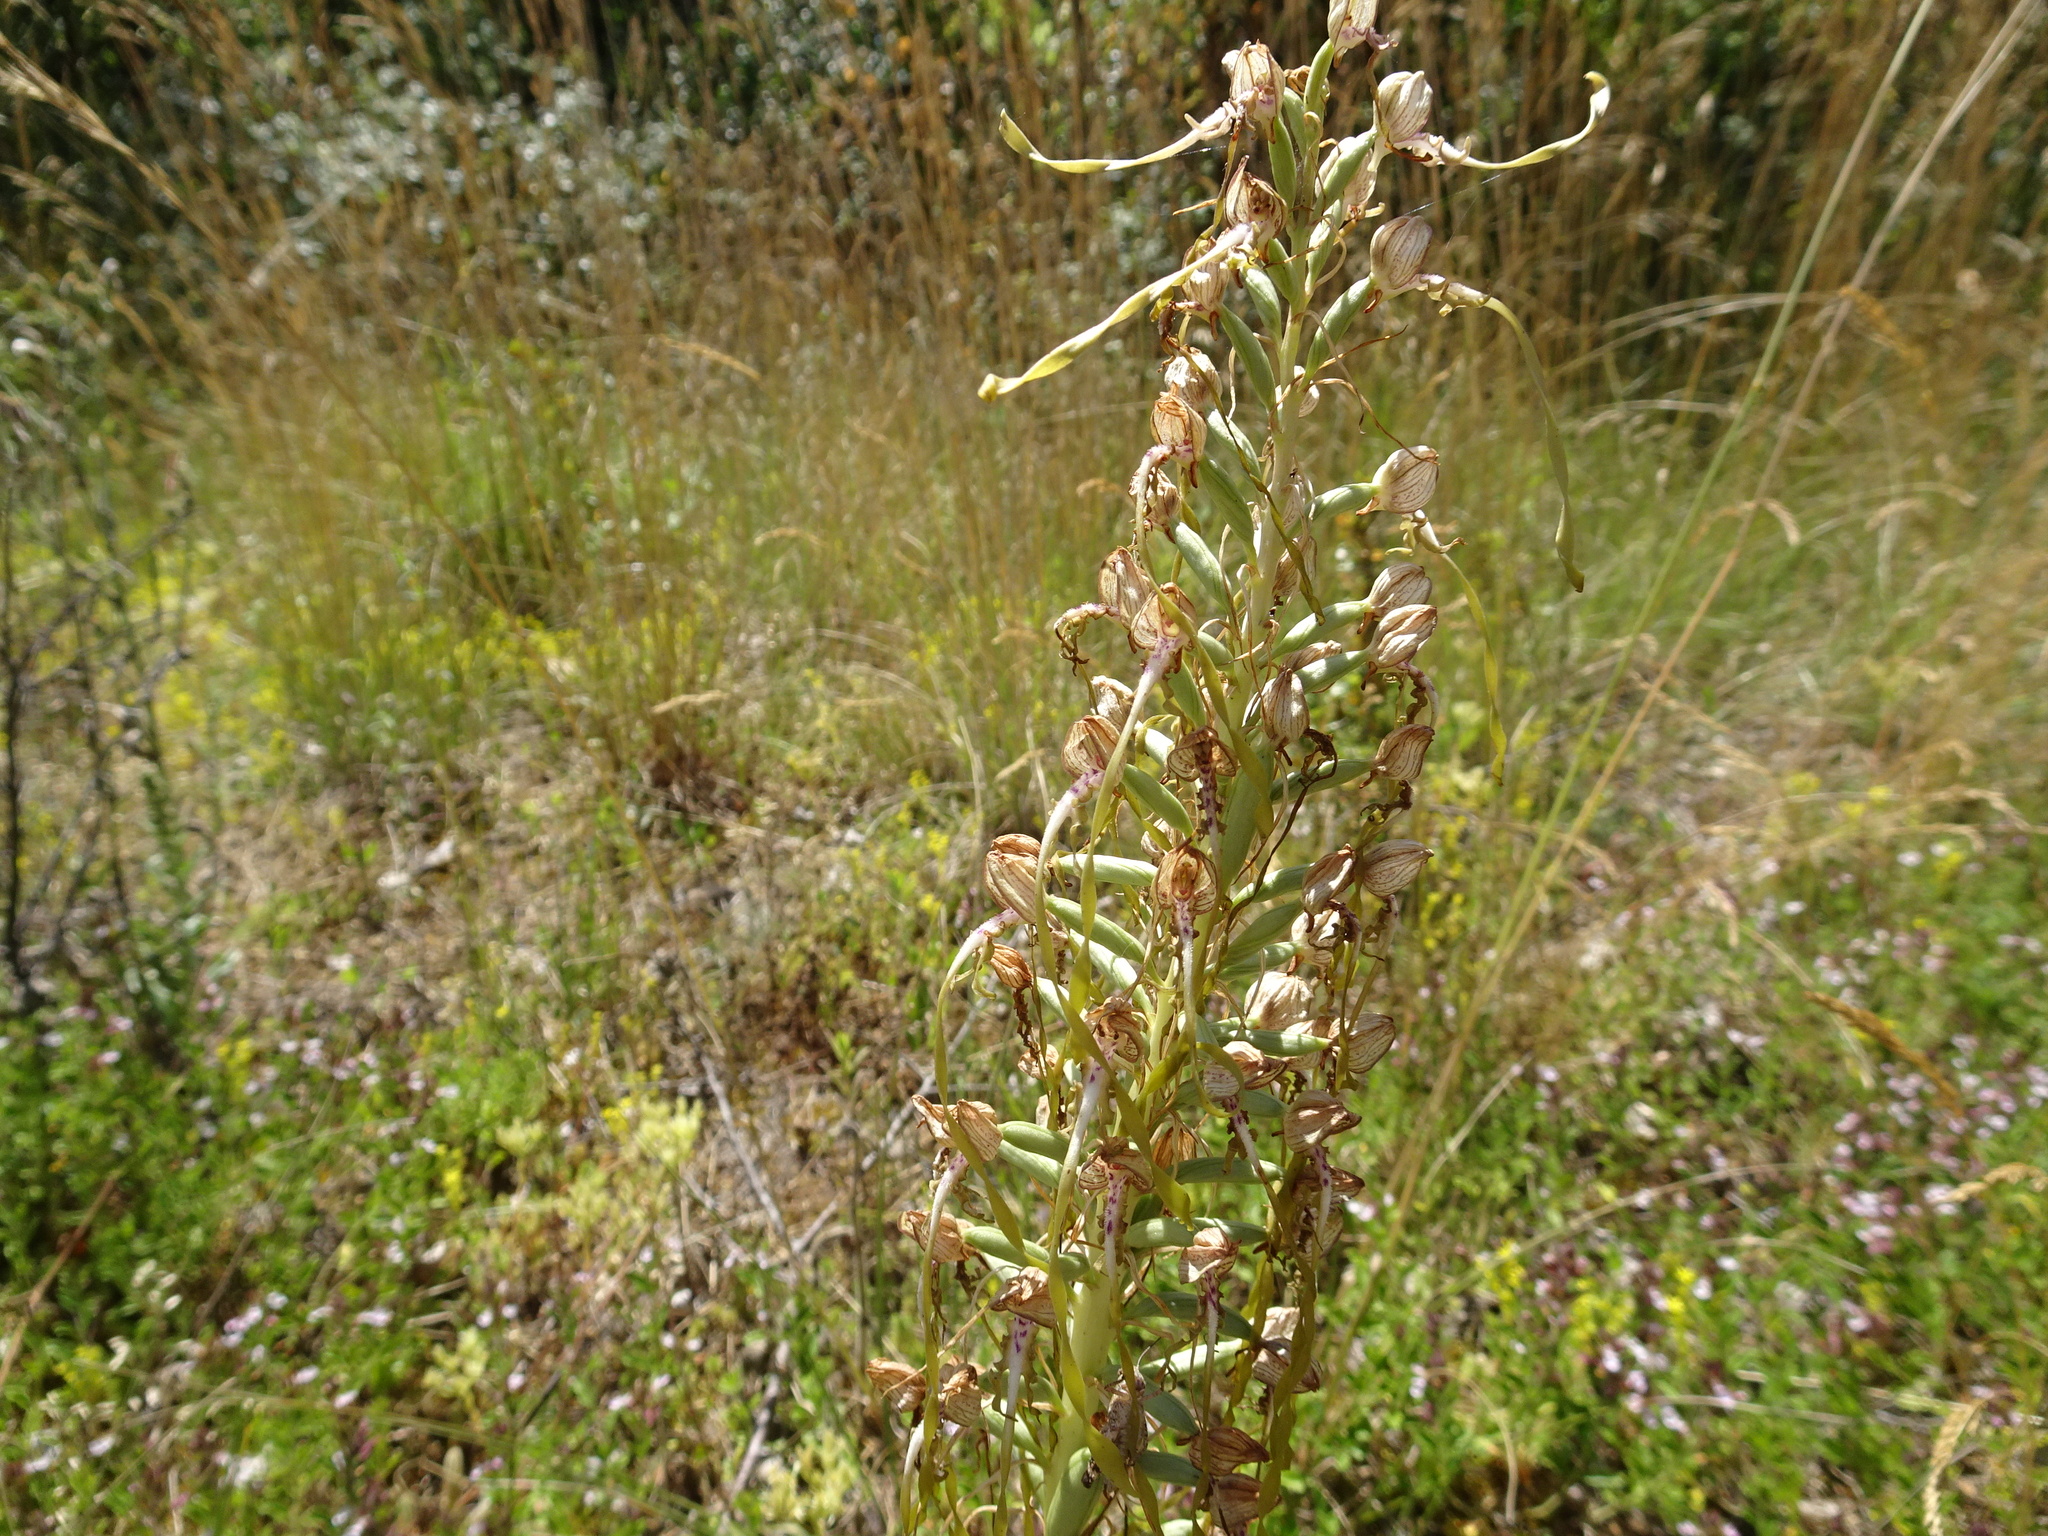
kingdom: Plantae
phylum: Tracheophyta
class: Liliopsida
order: Asparagales
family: Orchidaceae
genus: Himantoglossum
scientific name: Himantoglossum hircinum
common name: Lizard orchid
